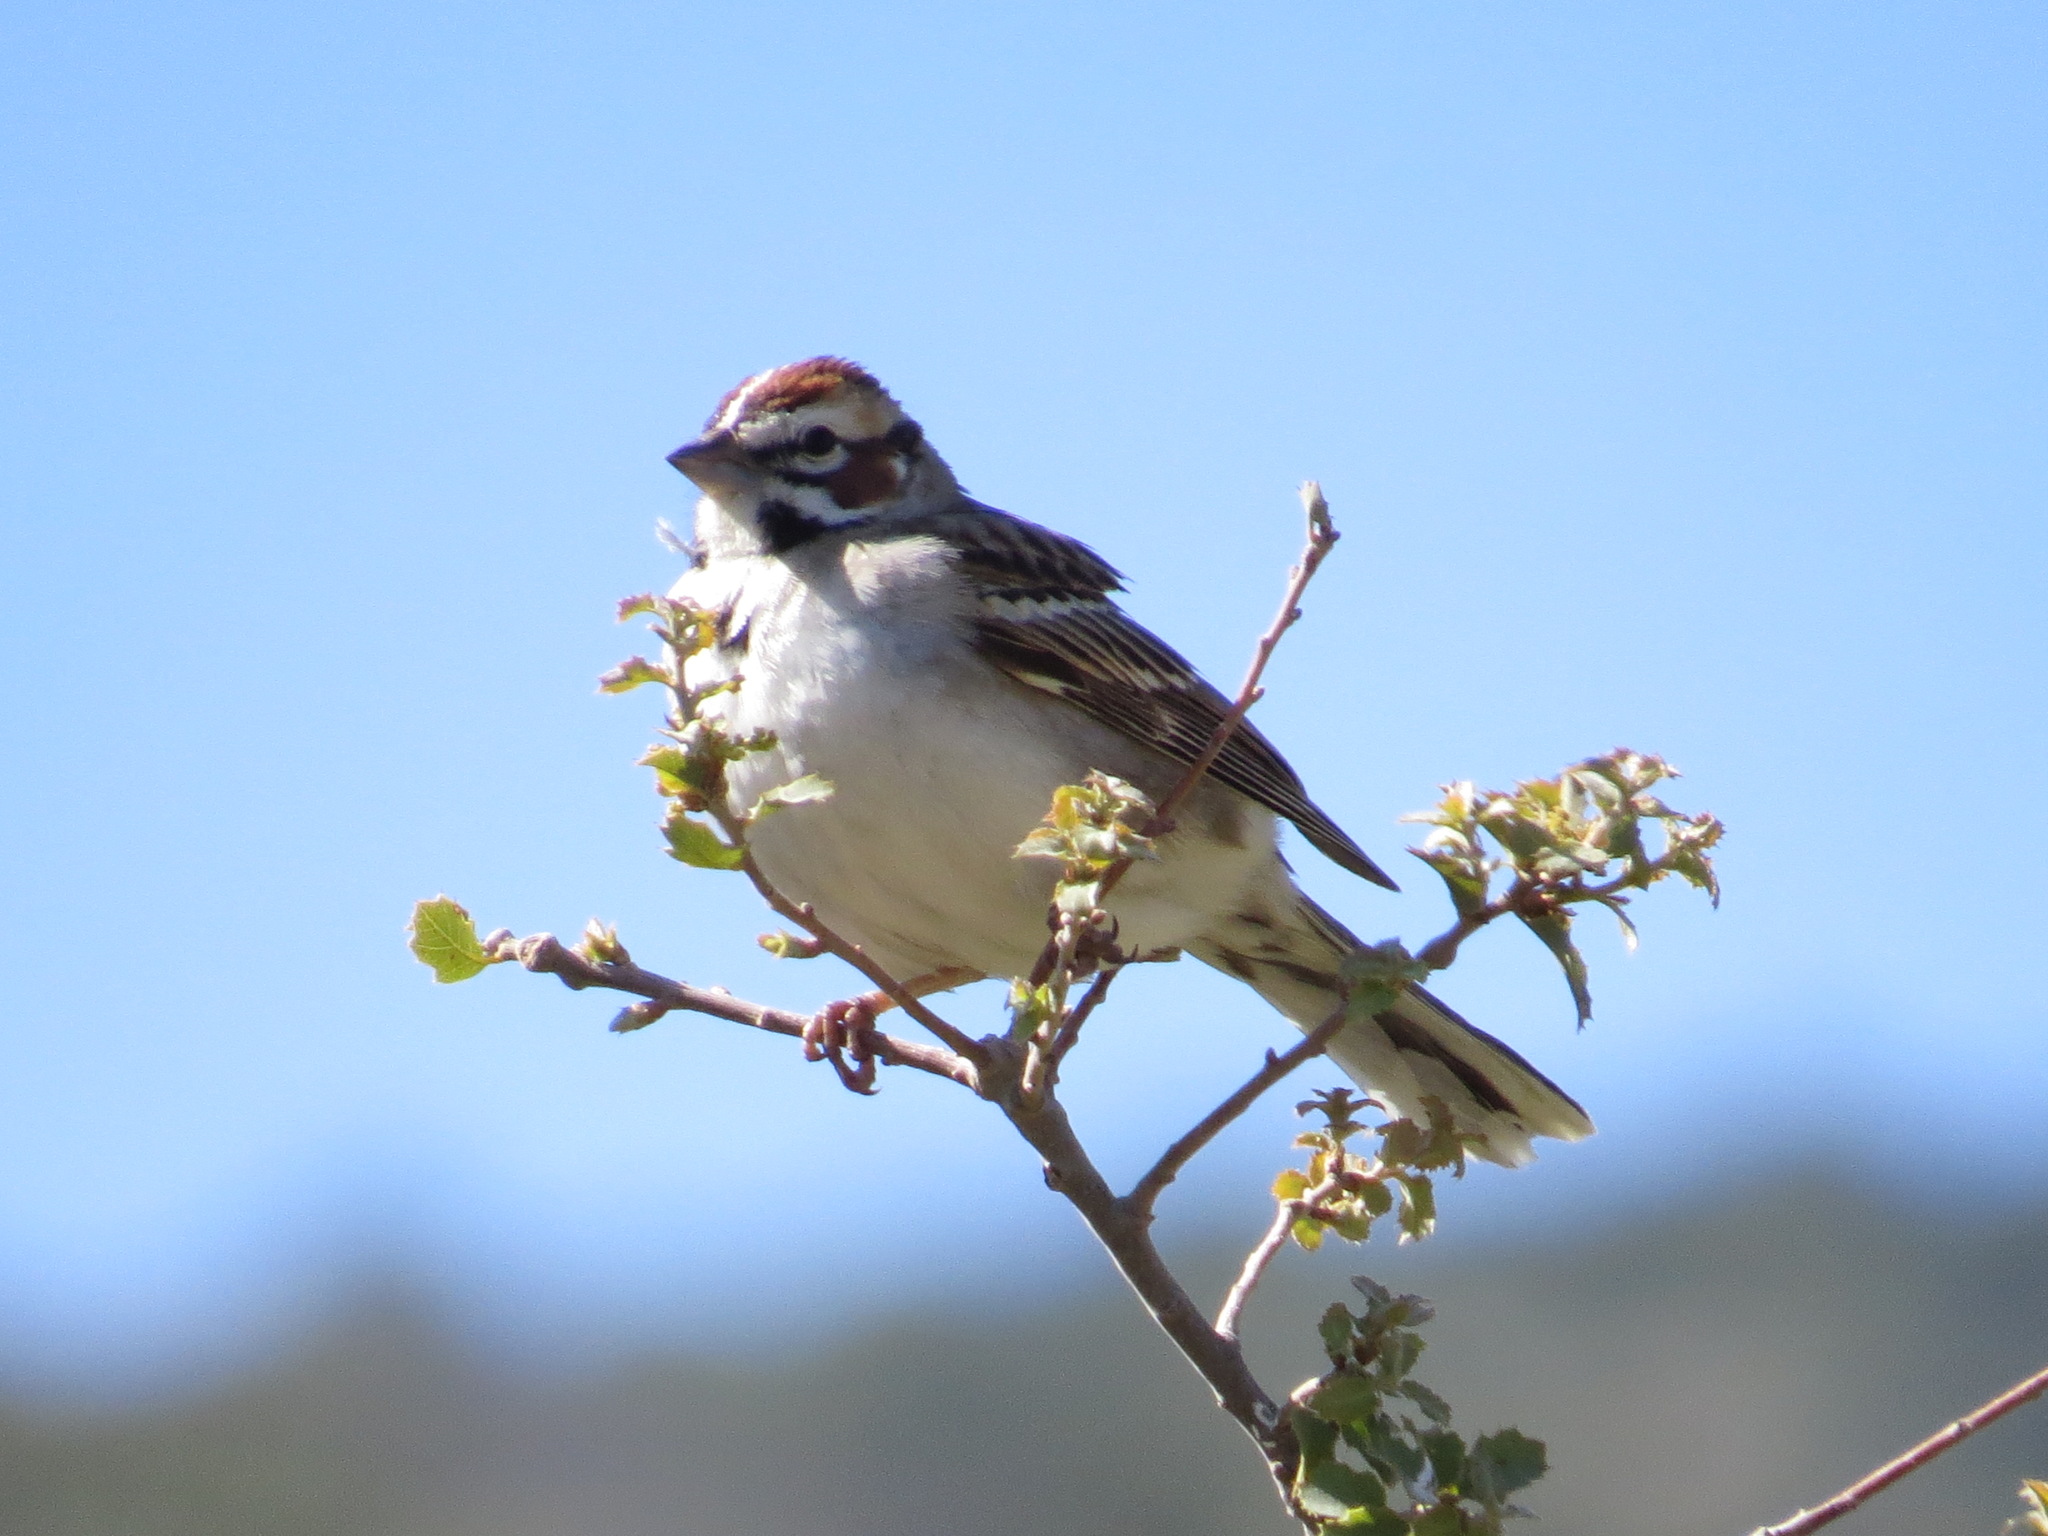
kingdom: Animalia
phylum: Chordata
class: Aves
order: Passeriformes
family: Passerellidae
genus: Chondestes
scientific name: Chondestes grammacus
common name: Lark sparrow
